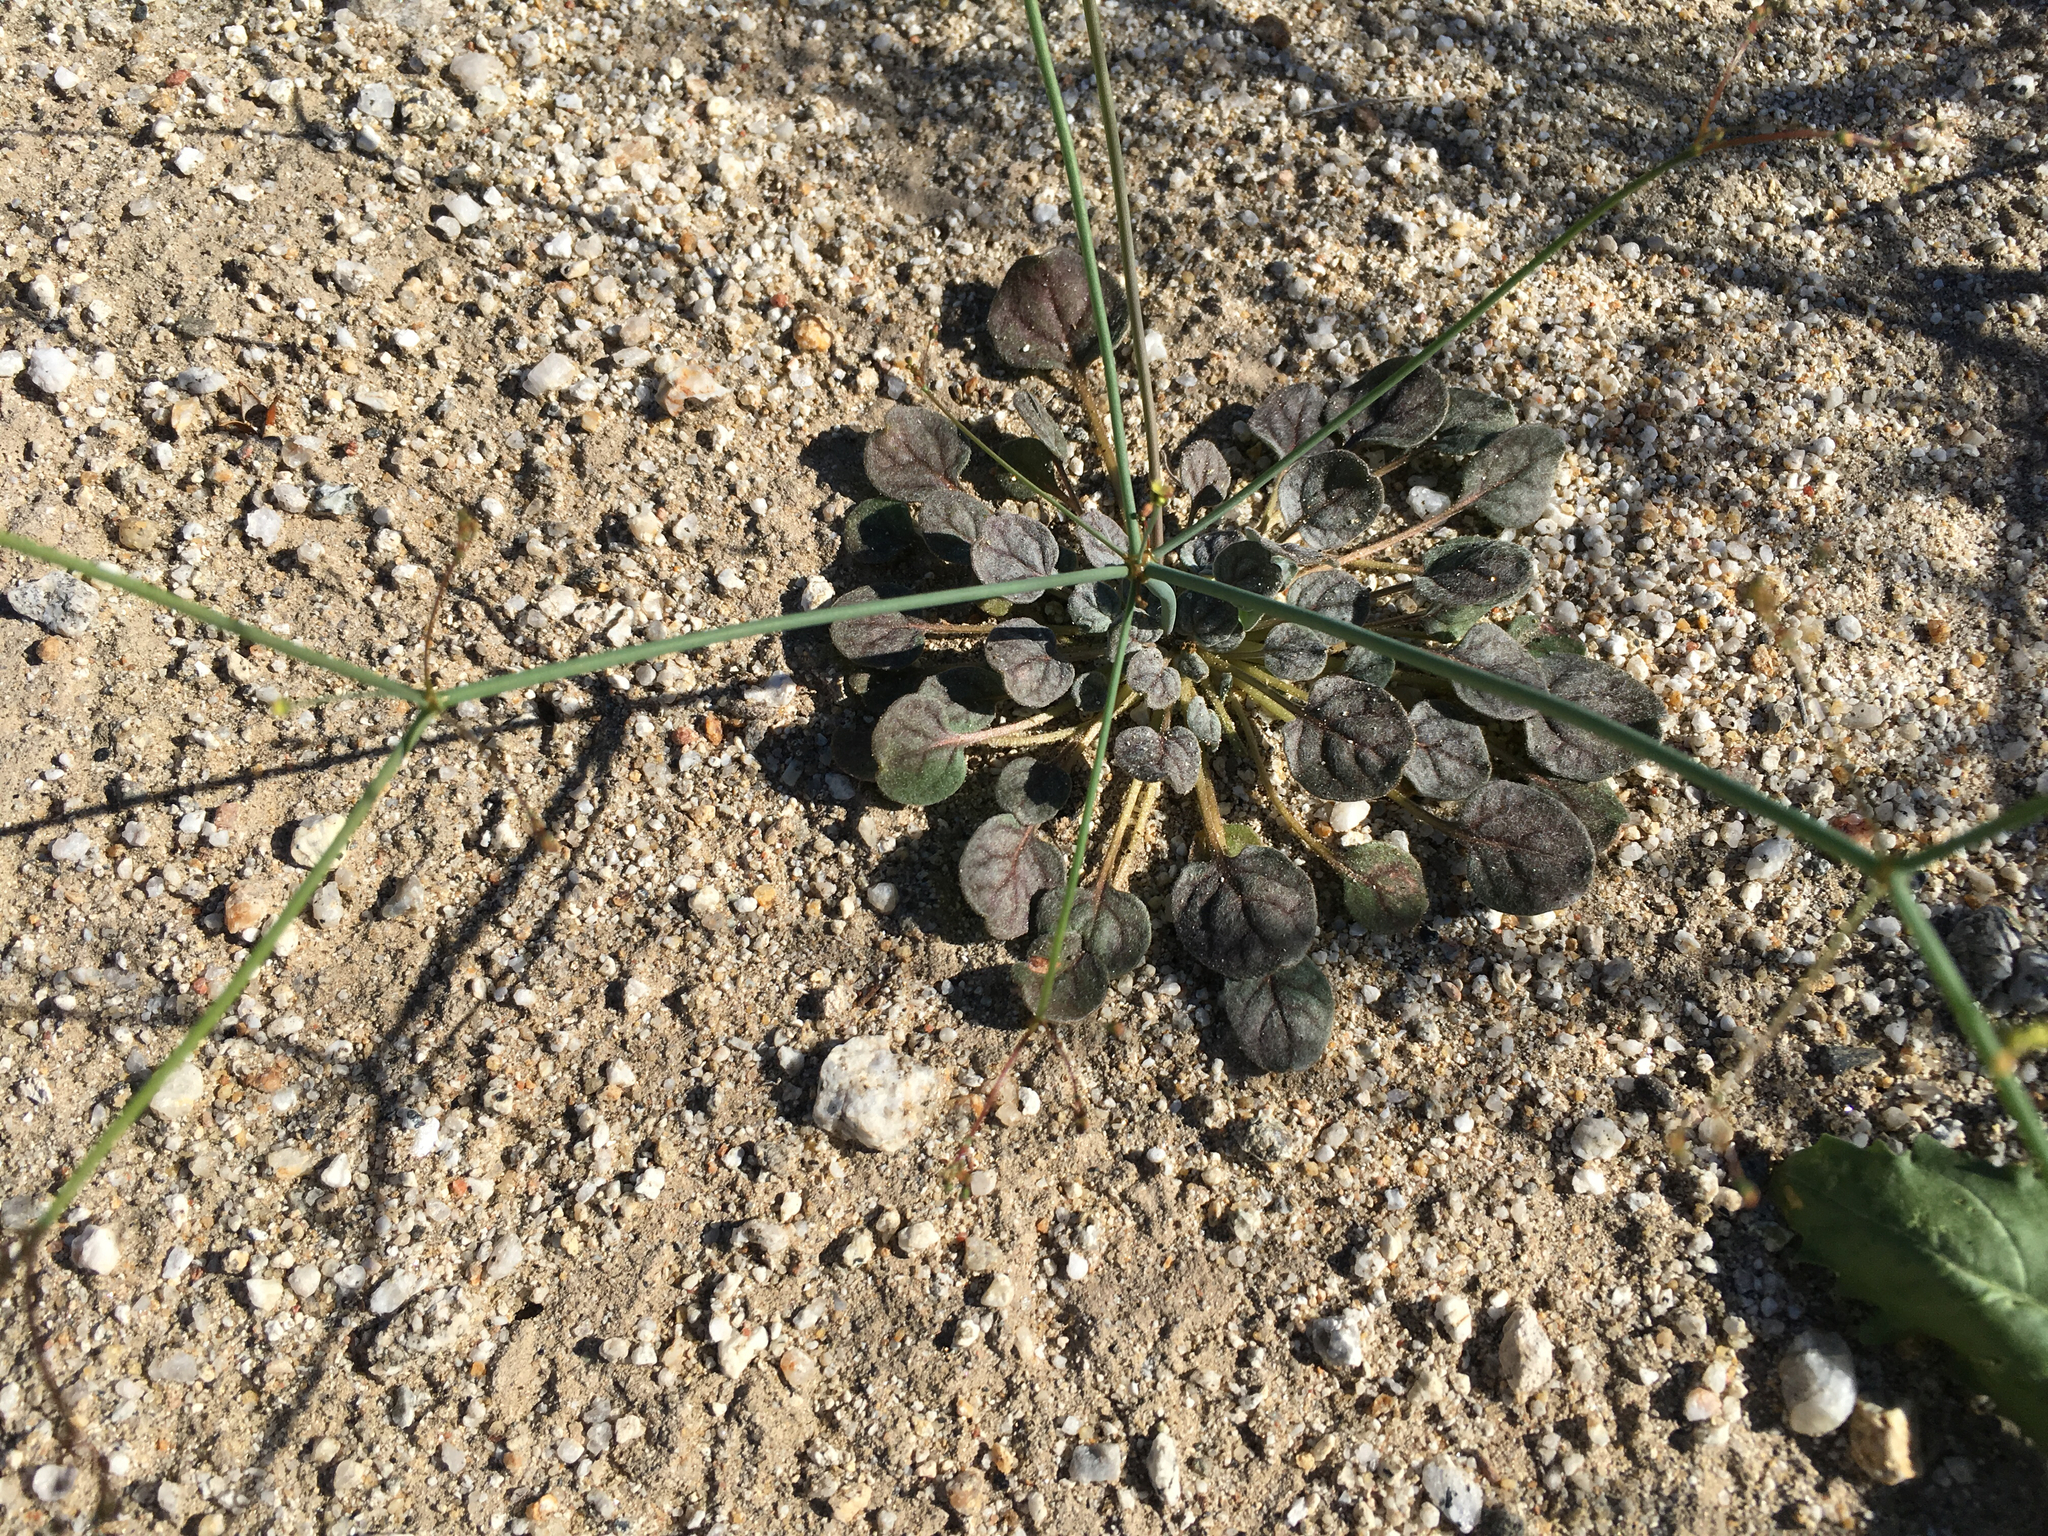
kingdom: Plantae
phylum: Tracheophyta
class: Magnoliopsida
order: Caryophyllales
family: Polygonaceae
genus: Eriogonum
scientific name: Eriogonum inflatum
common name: Desert trumpet
